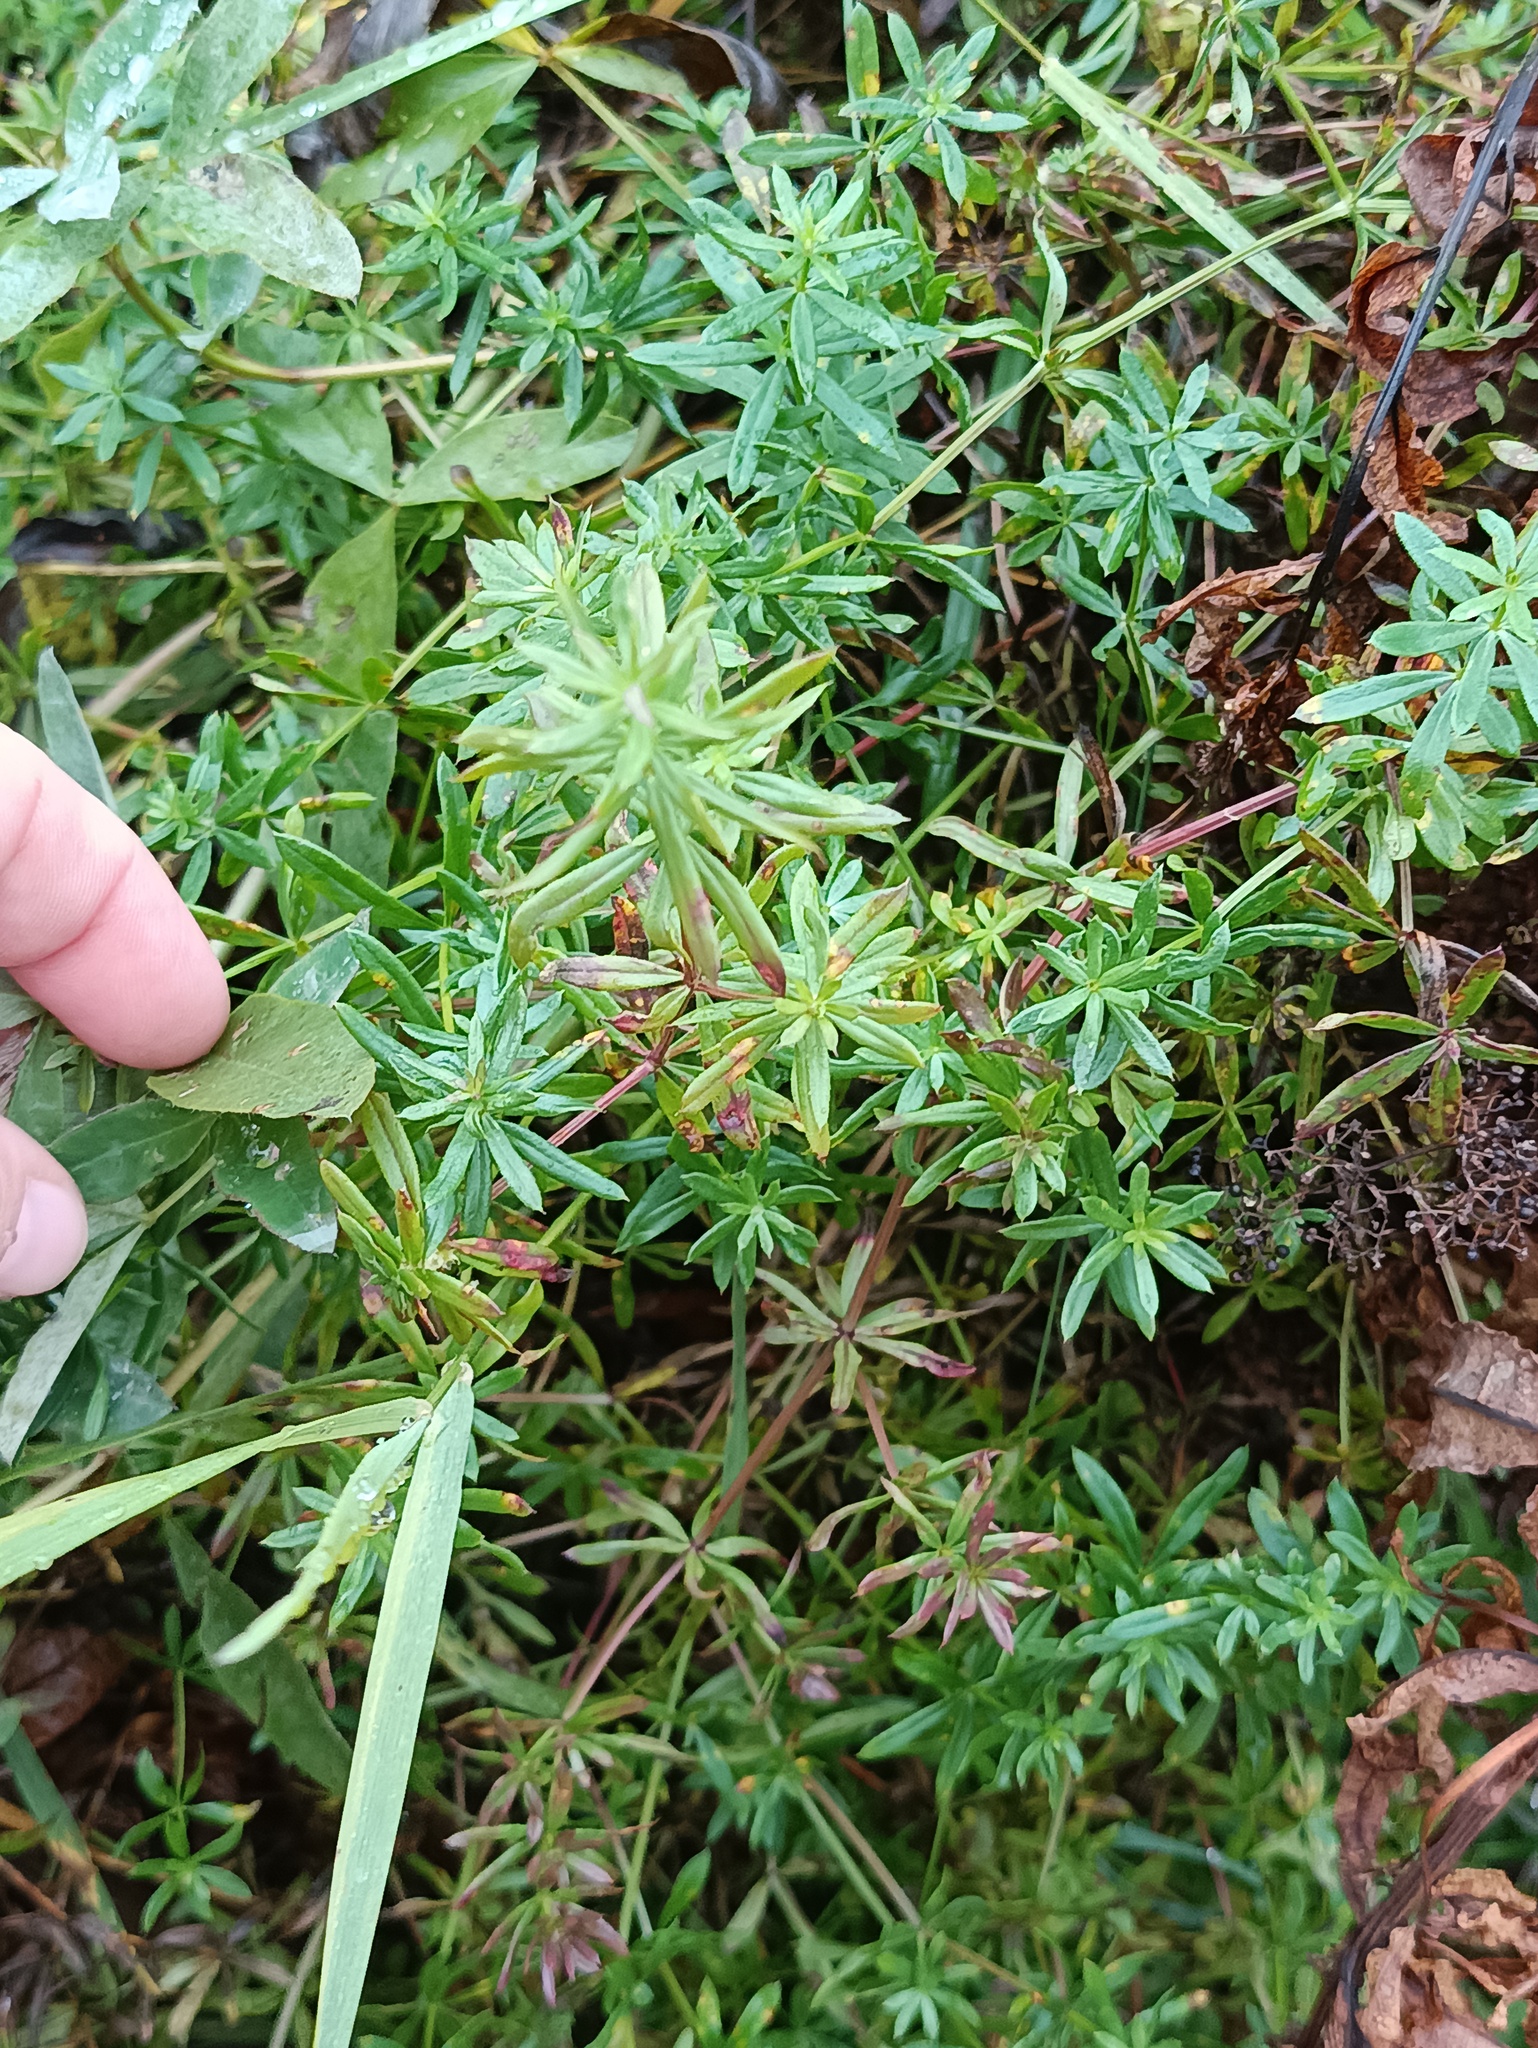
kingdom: Plantae
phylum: Tracheophyta
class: Magnoliopsida
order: Gentianales
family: Rubiaceae
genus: Galium
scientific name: Galium mollugo
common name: Hedge bedstraw
